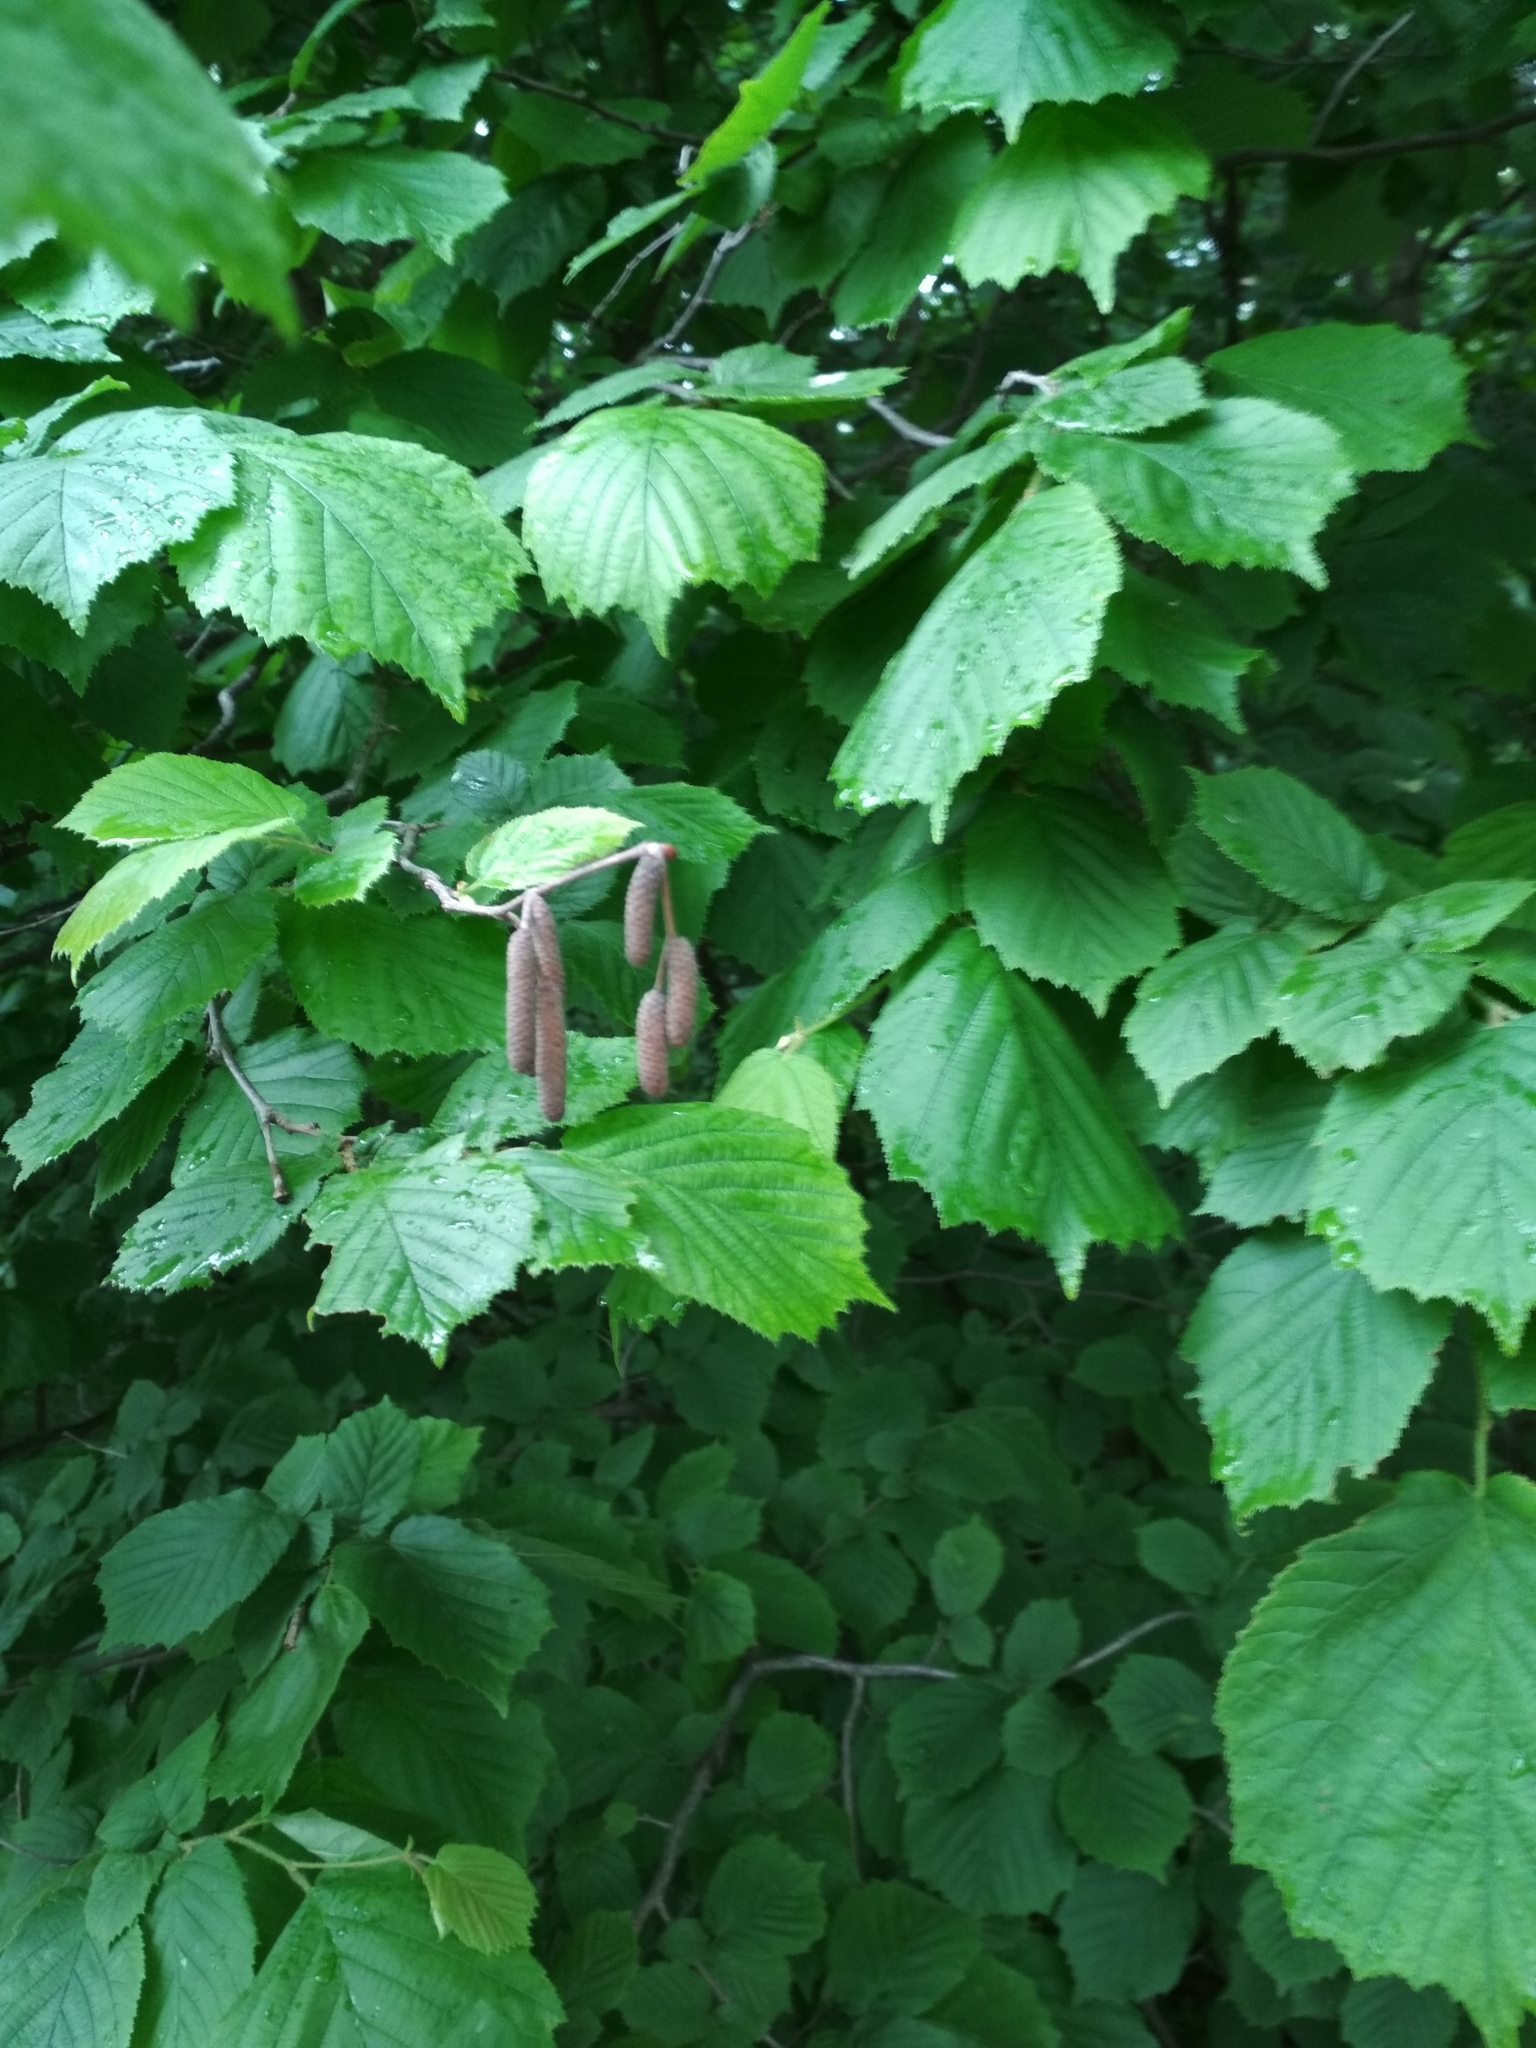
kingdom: Plantae
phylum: Tracheophyta
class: Magnoliopsida
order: Fagales
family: Betulaceae
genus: Corylus
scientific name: Corylus avellana
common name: European hazel
